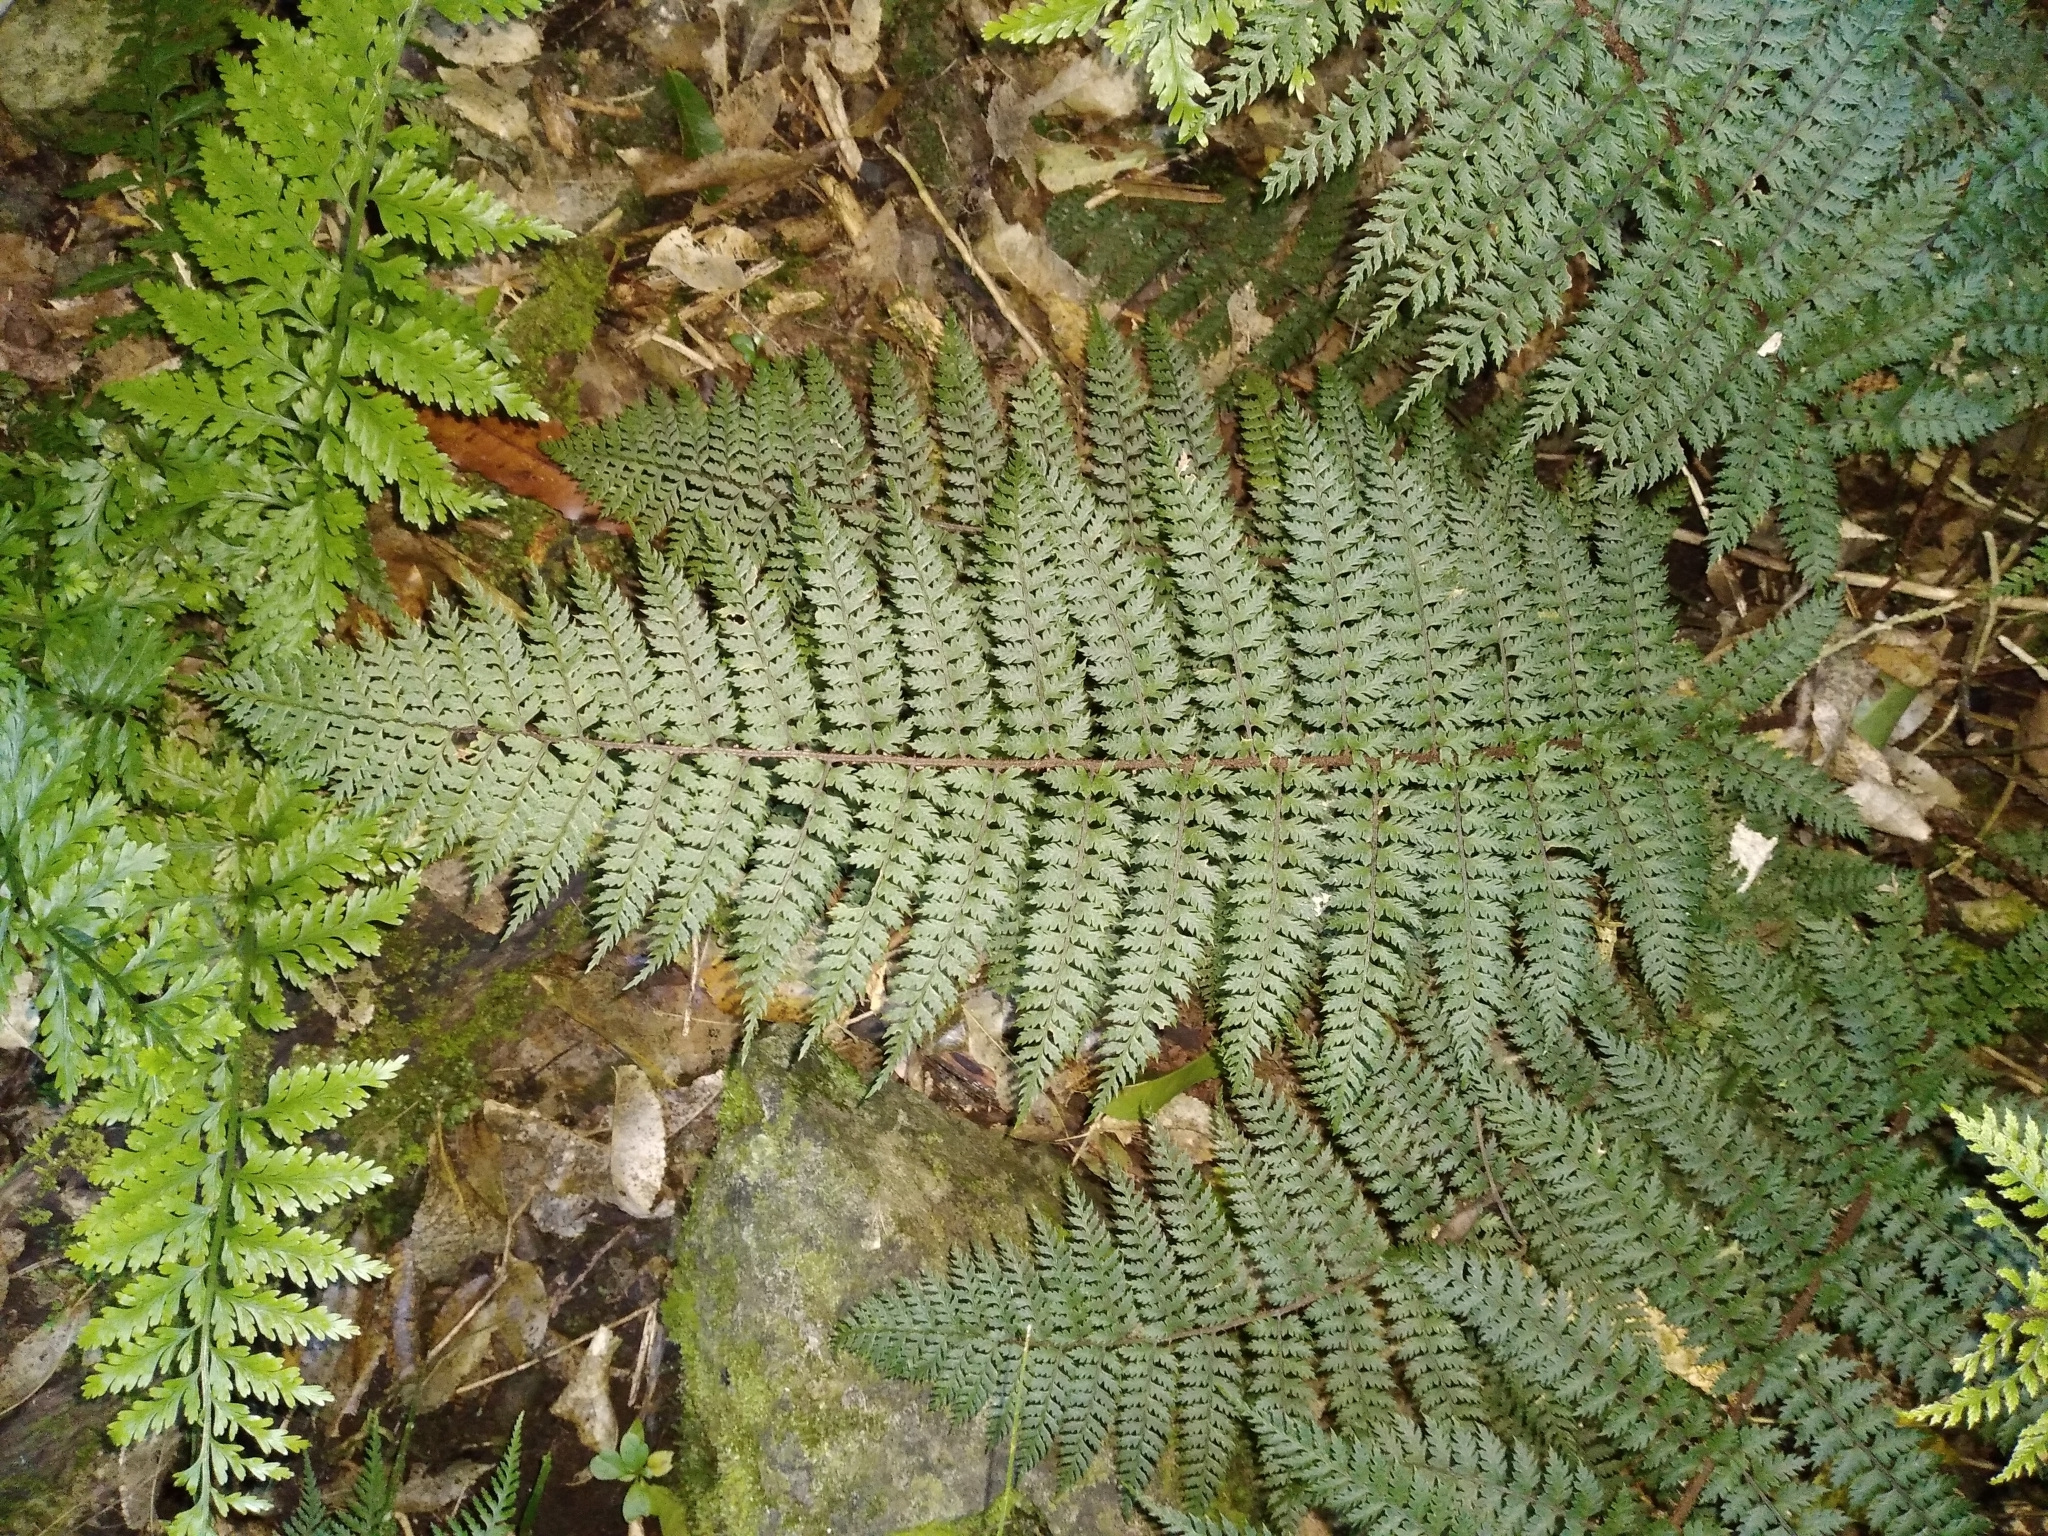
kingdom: Plantae
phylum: Tracheophyta
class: Polypodiopsida
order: Polypodiales
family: Dryopteridaceae
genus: Polystichum
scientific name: Polystichum silvaticum
